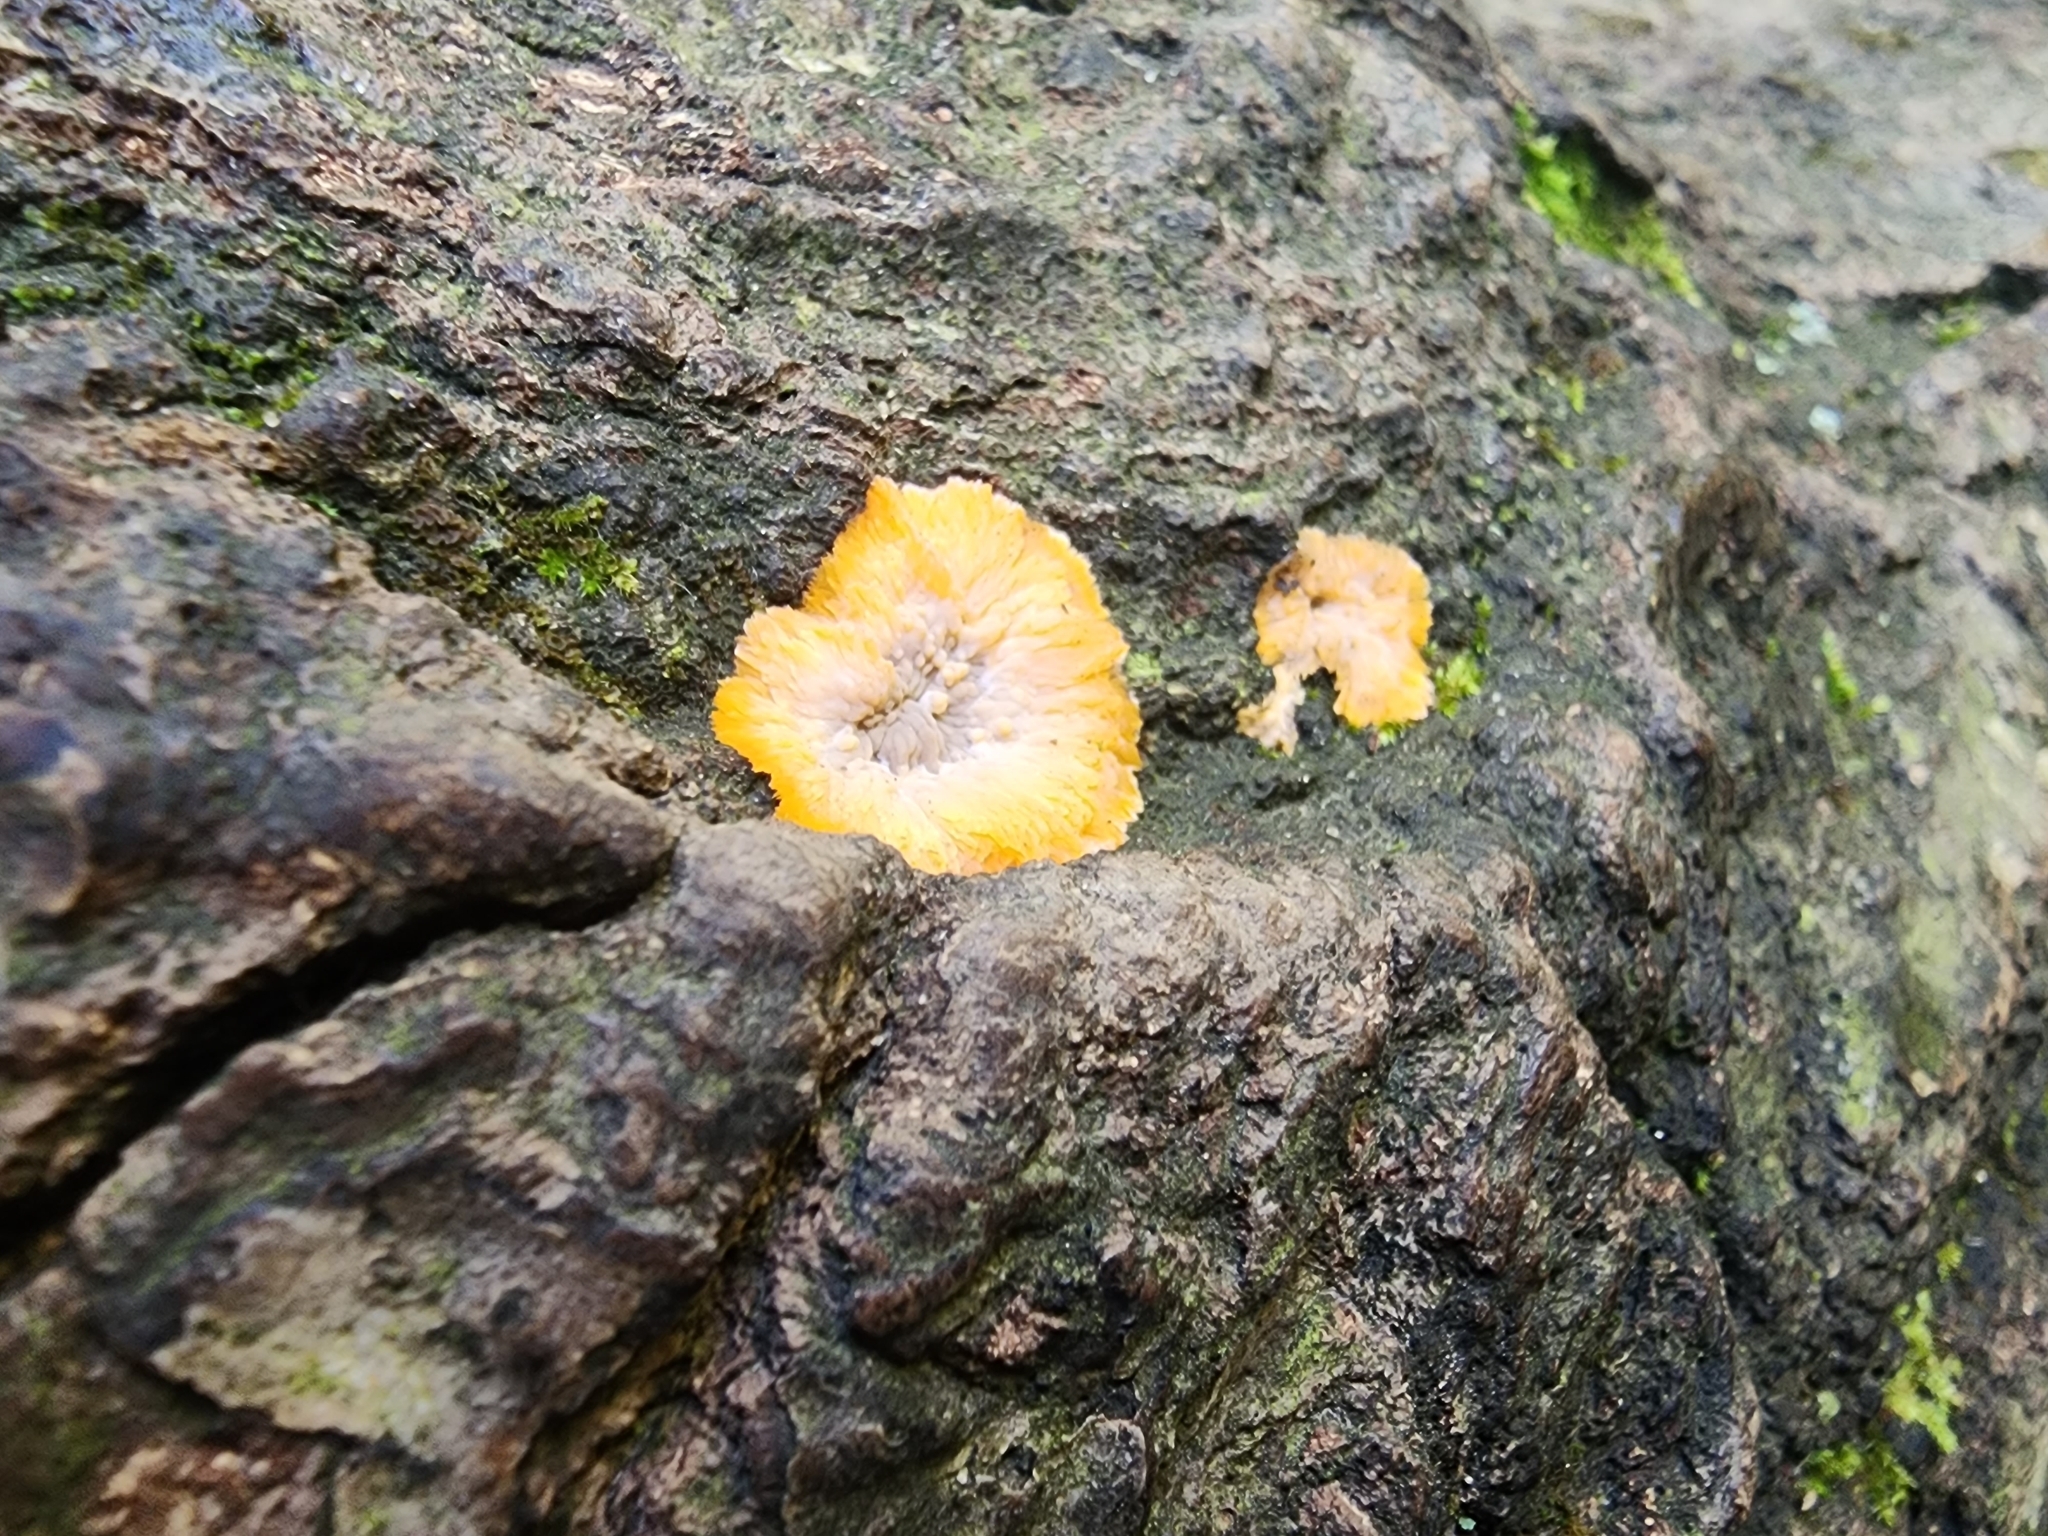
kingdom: Fungi
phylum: Basidiomycota
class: Agaricomycetes
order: Polyporales
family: Meruliaceae
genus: Phlebia
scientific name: Phlebia radiata
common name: Wrinkled crust
